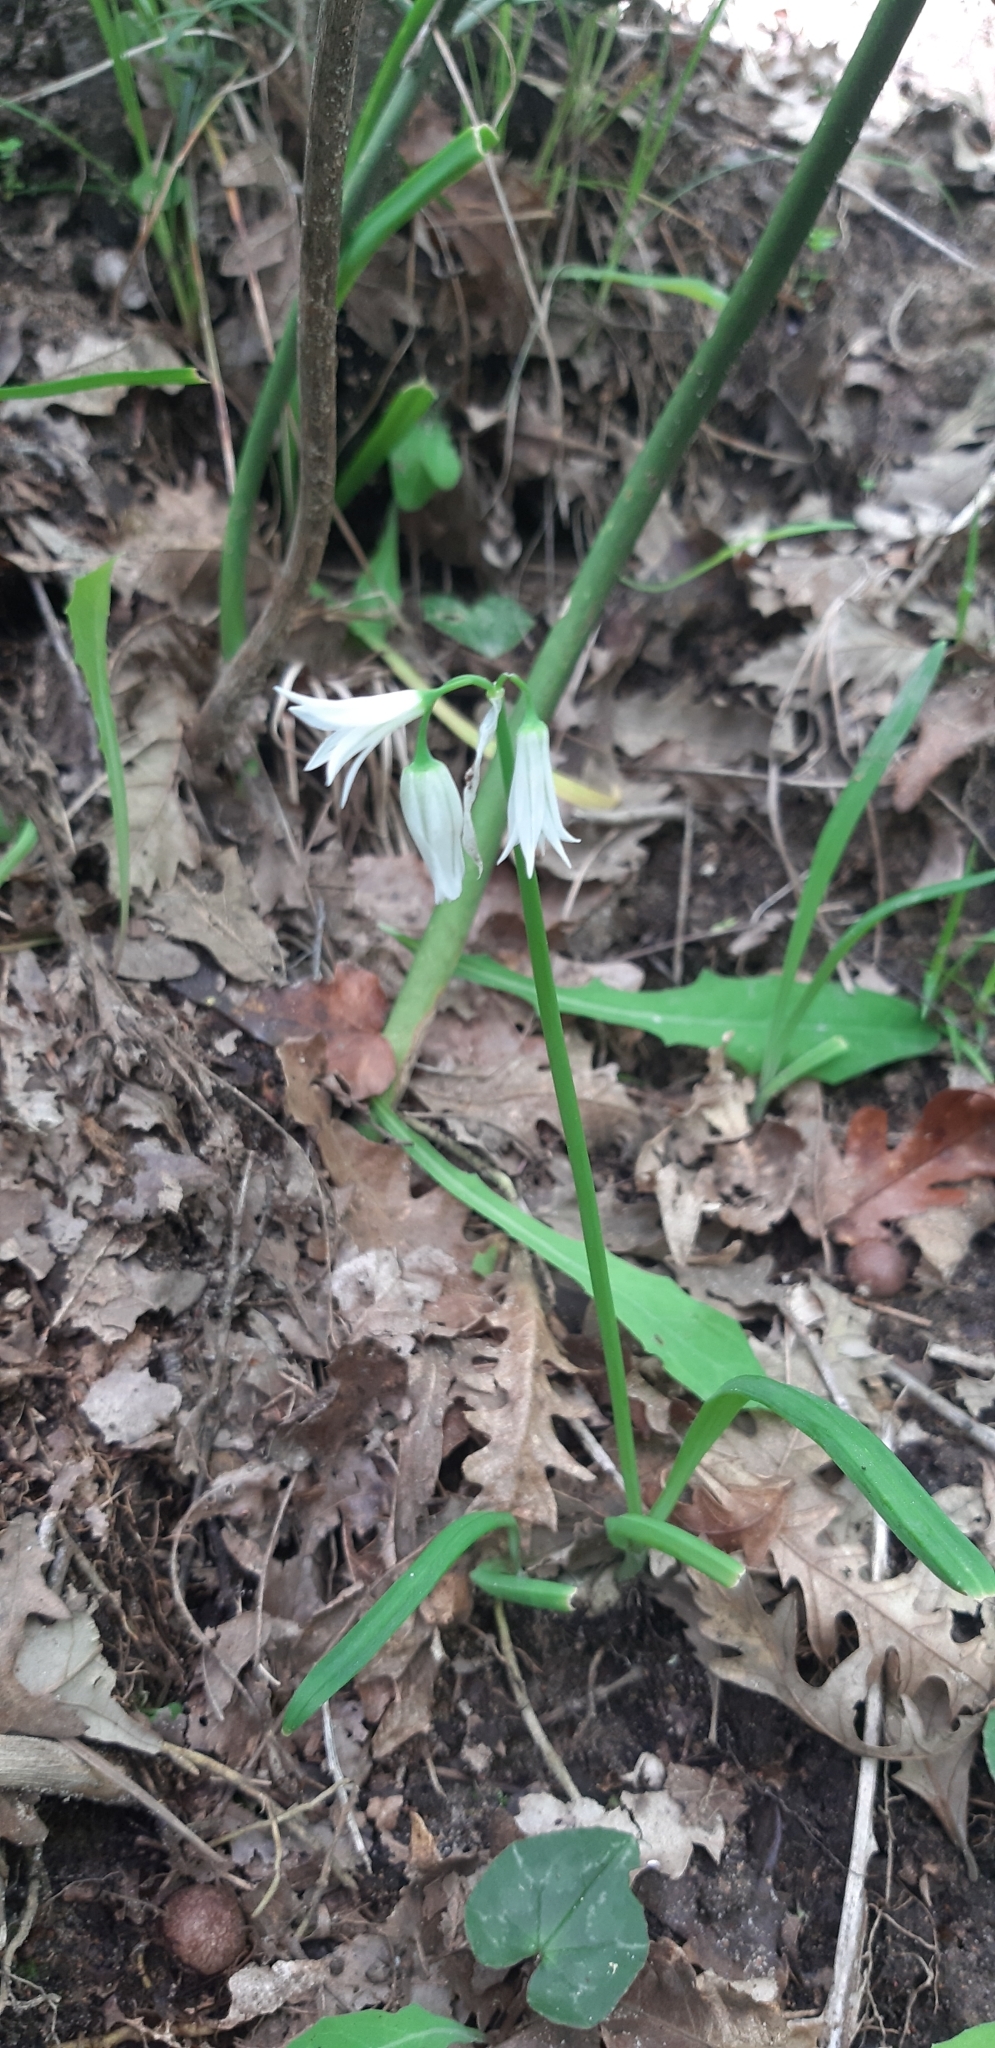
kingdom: Plantae
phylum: Tracheophyta
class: Liliopsida
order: Asparagales
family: Amaryllidaceae
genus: Allium
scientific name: Allium triquetrum
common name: Three-cornered garlic
